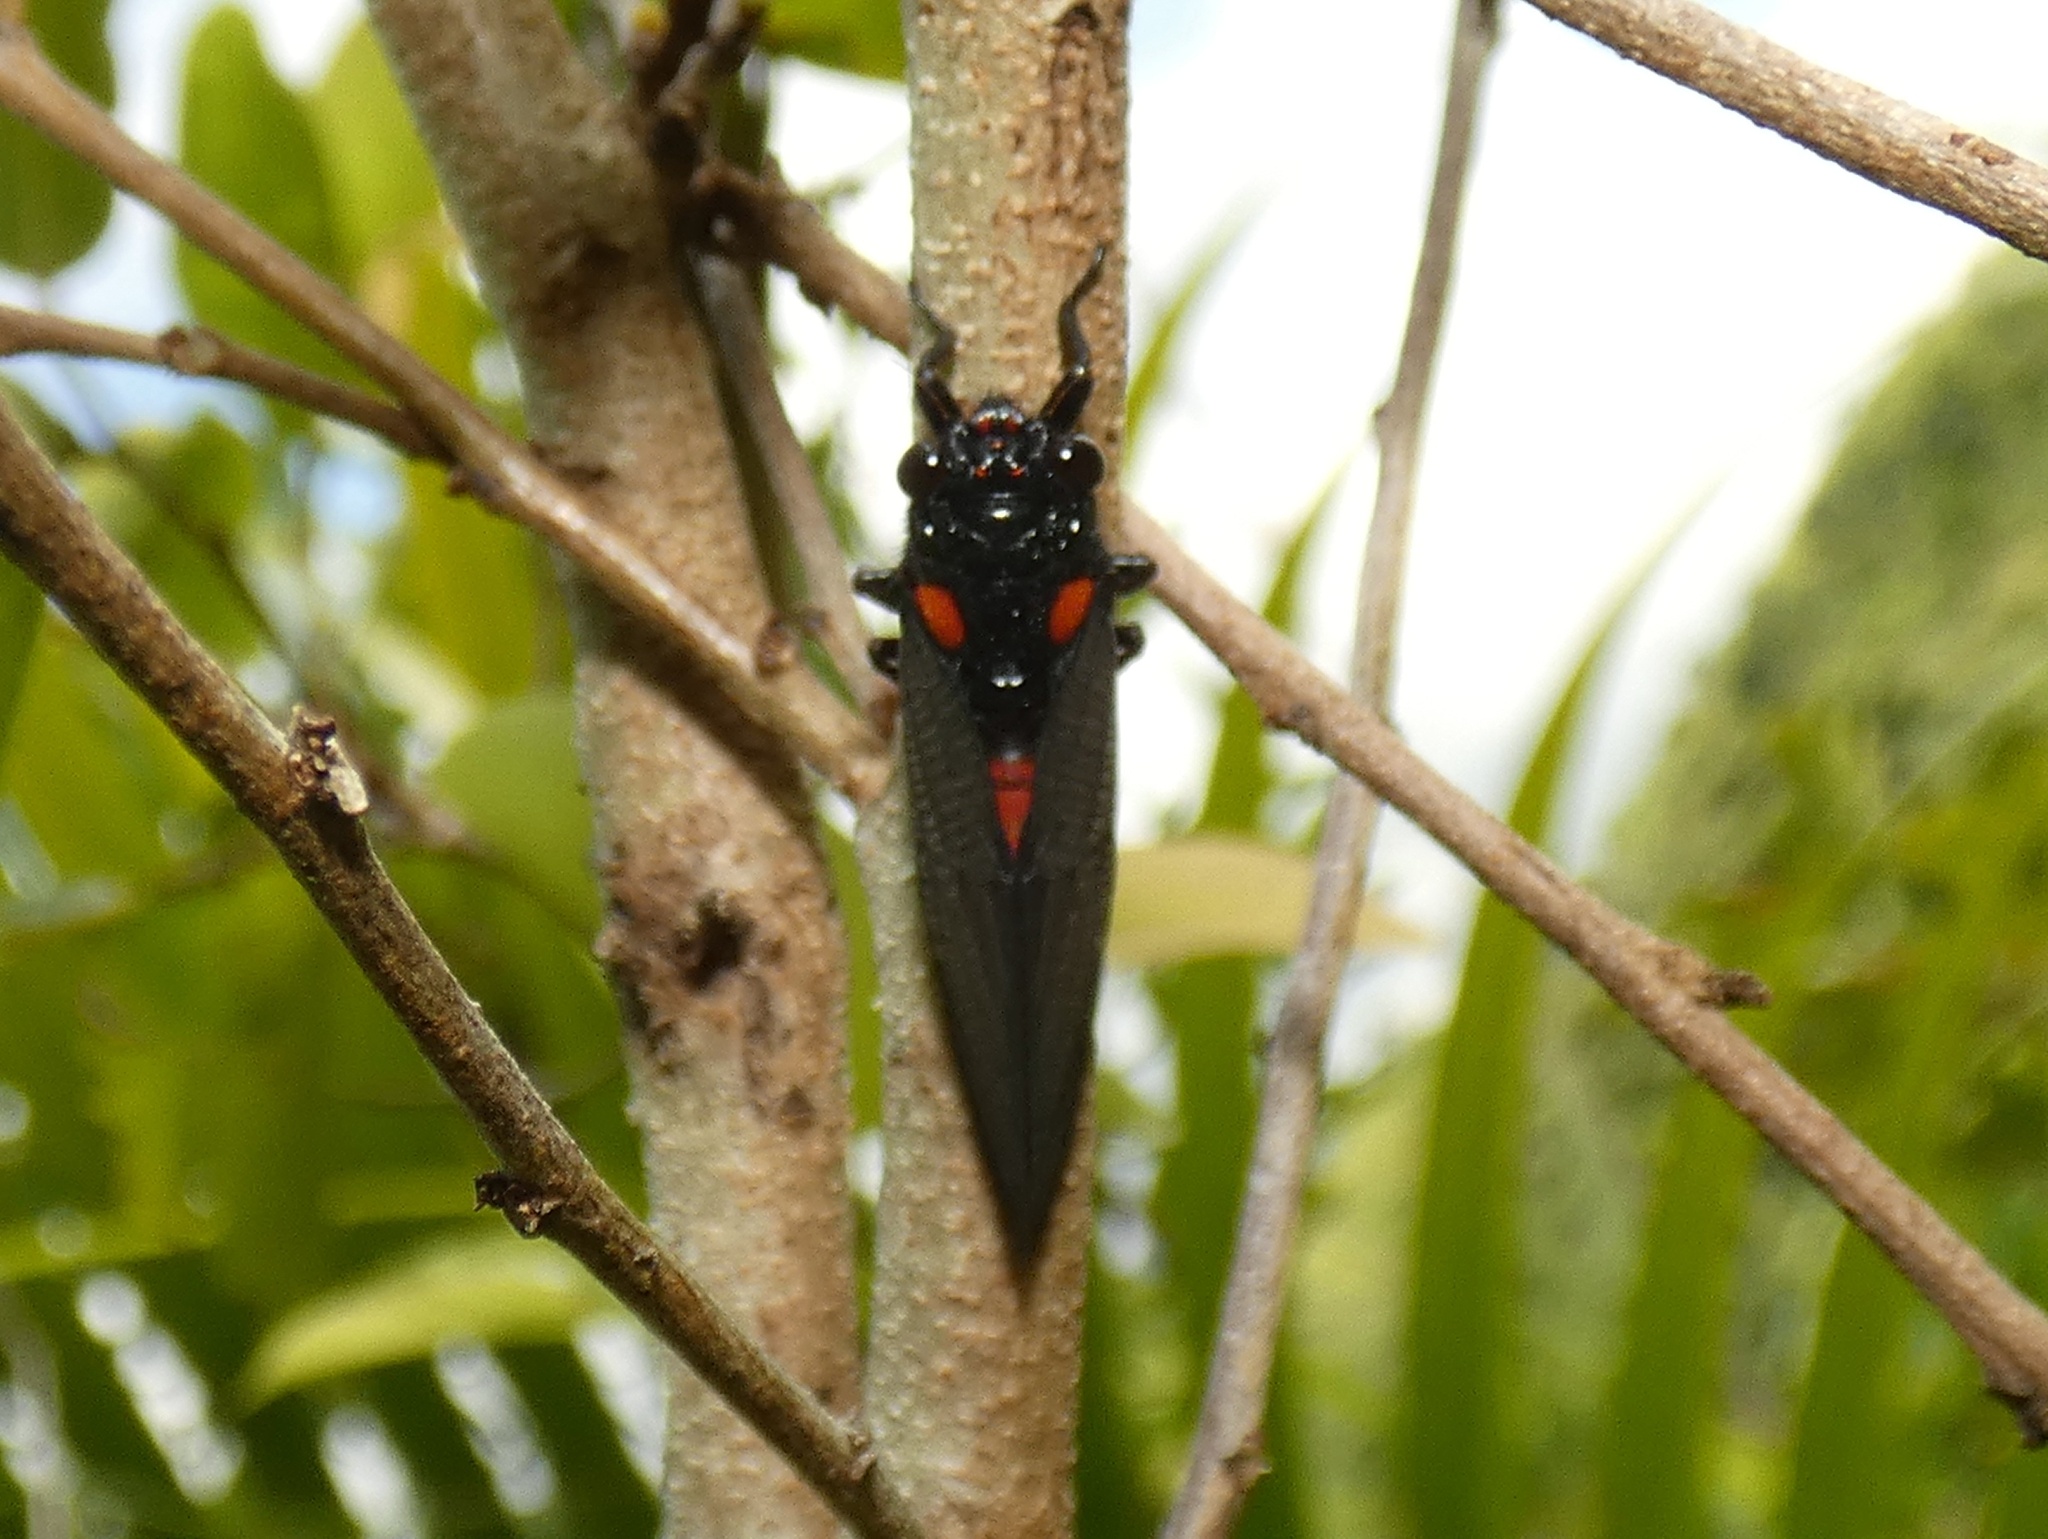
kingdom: Animalia
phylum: Arthropoda
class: Insecta
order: Hemiptera
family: Cicadidae
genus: Huechys
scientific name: Huechys sanguinea
